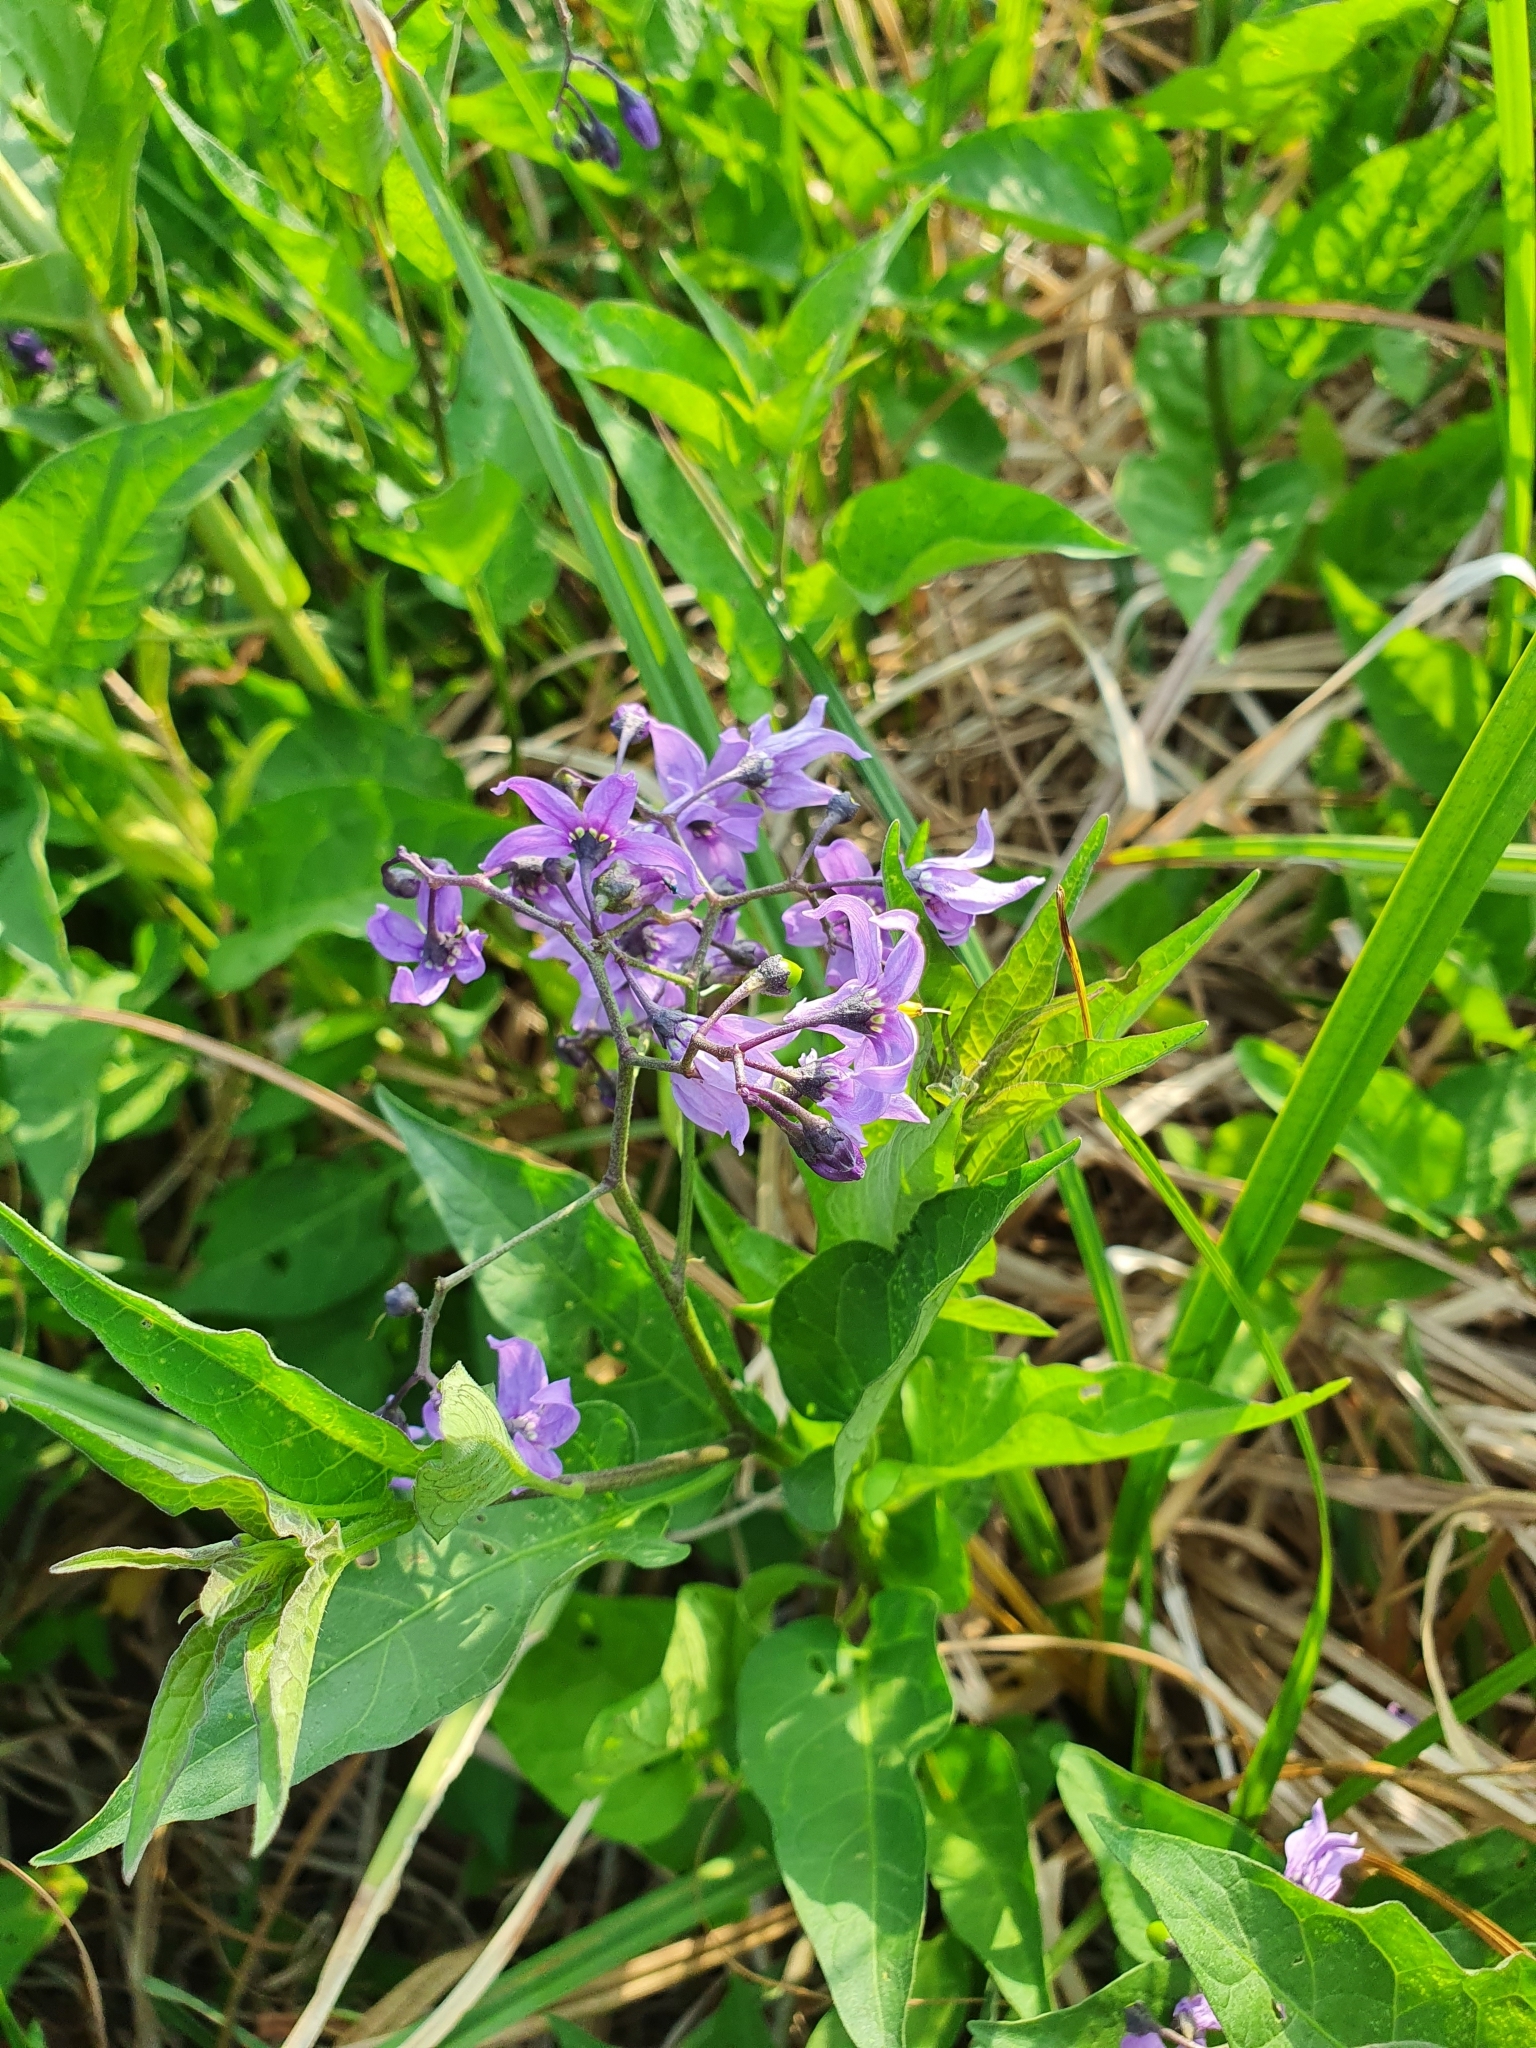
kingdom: Plantae
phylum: Tracheophyta
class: Magnoliopsida
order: Solanales
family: Solanaceae
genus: Solanum
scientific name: Solanum dulcamara
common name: Climbing nightshade
